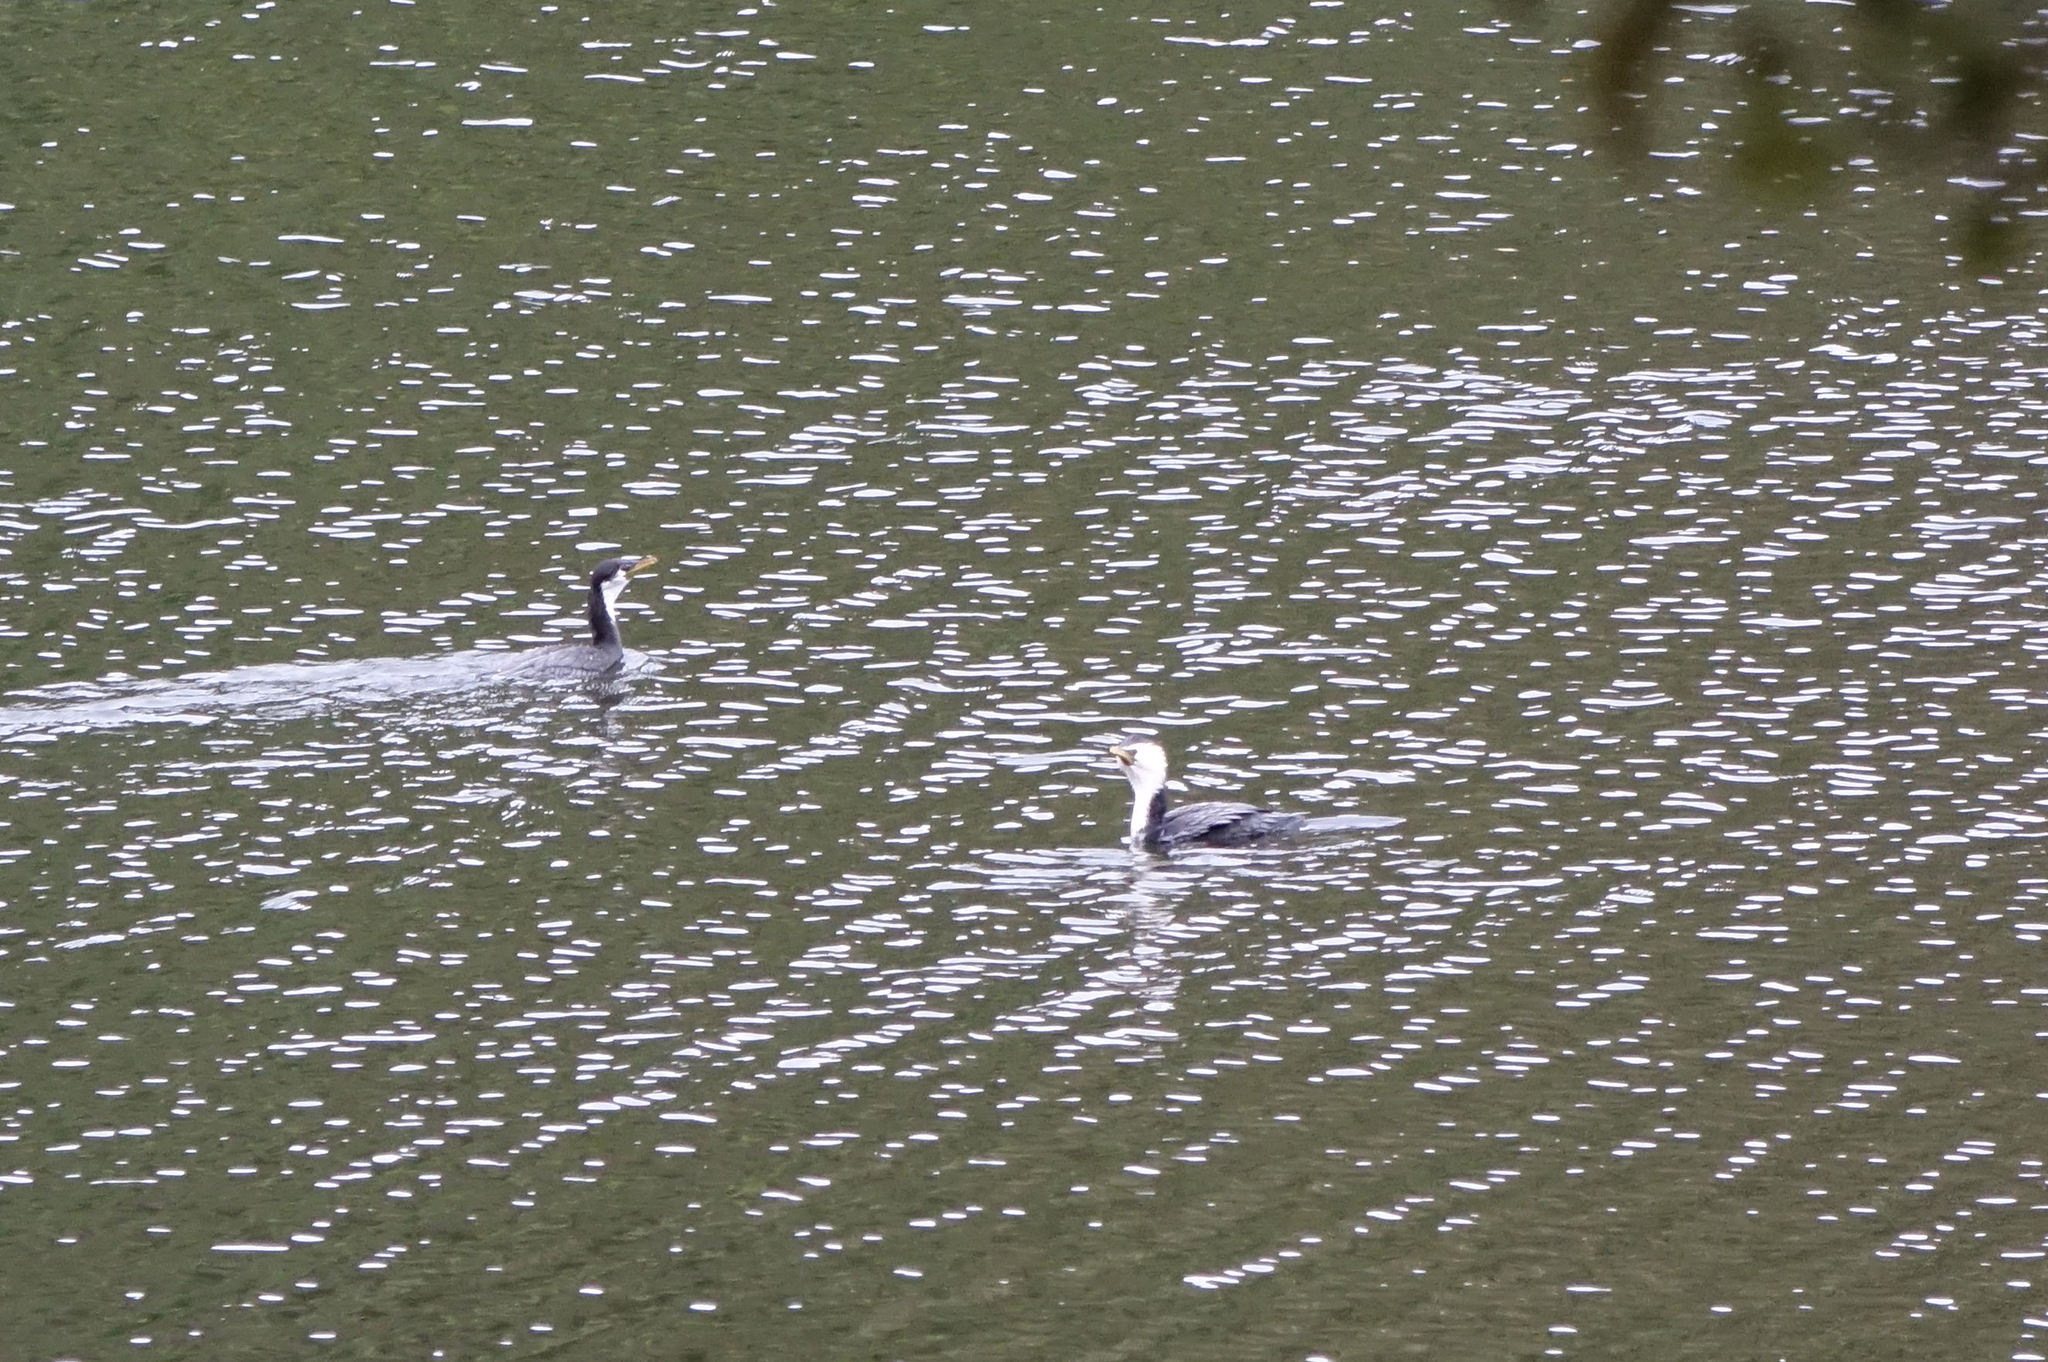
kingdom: Animalia
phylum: Chordata
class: Aves
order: Suliformes
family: Phalacrocoracidae
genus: Microcarbo
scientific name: Microcarbo melanoleucos
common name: Little pied cormorant
